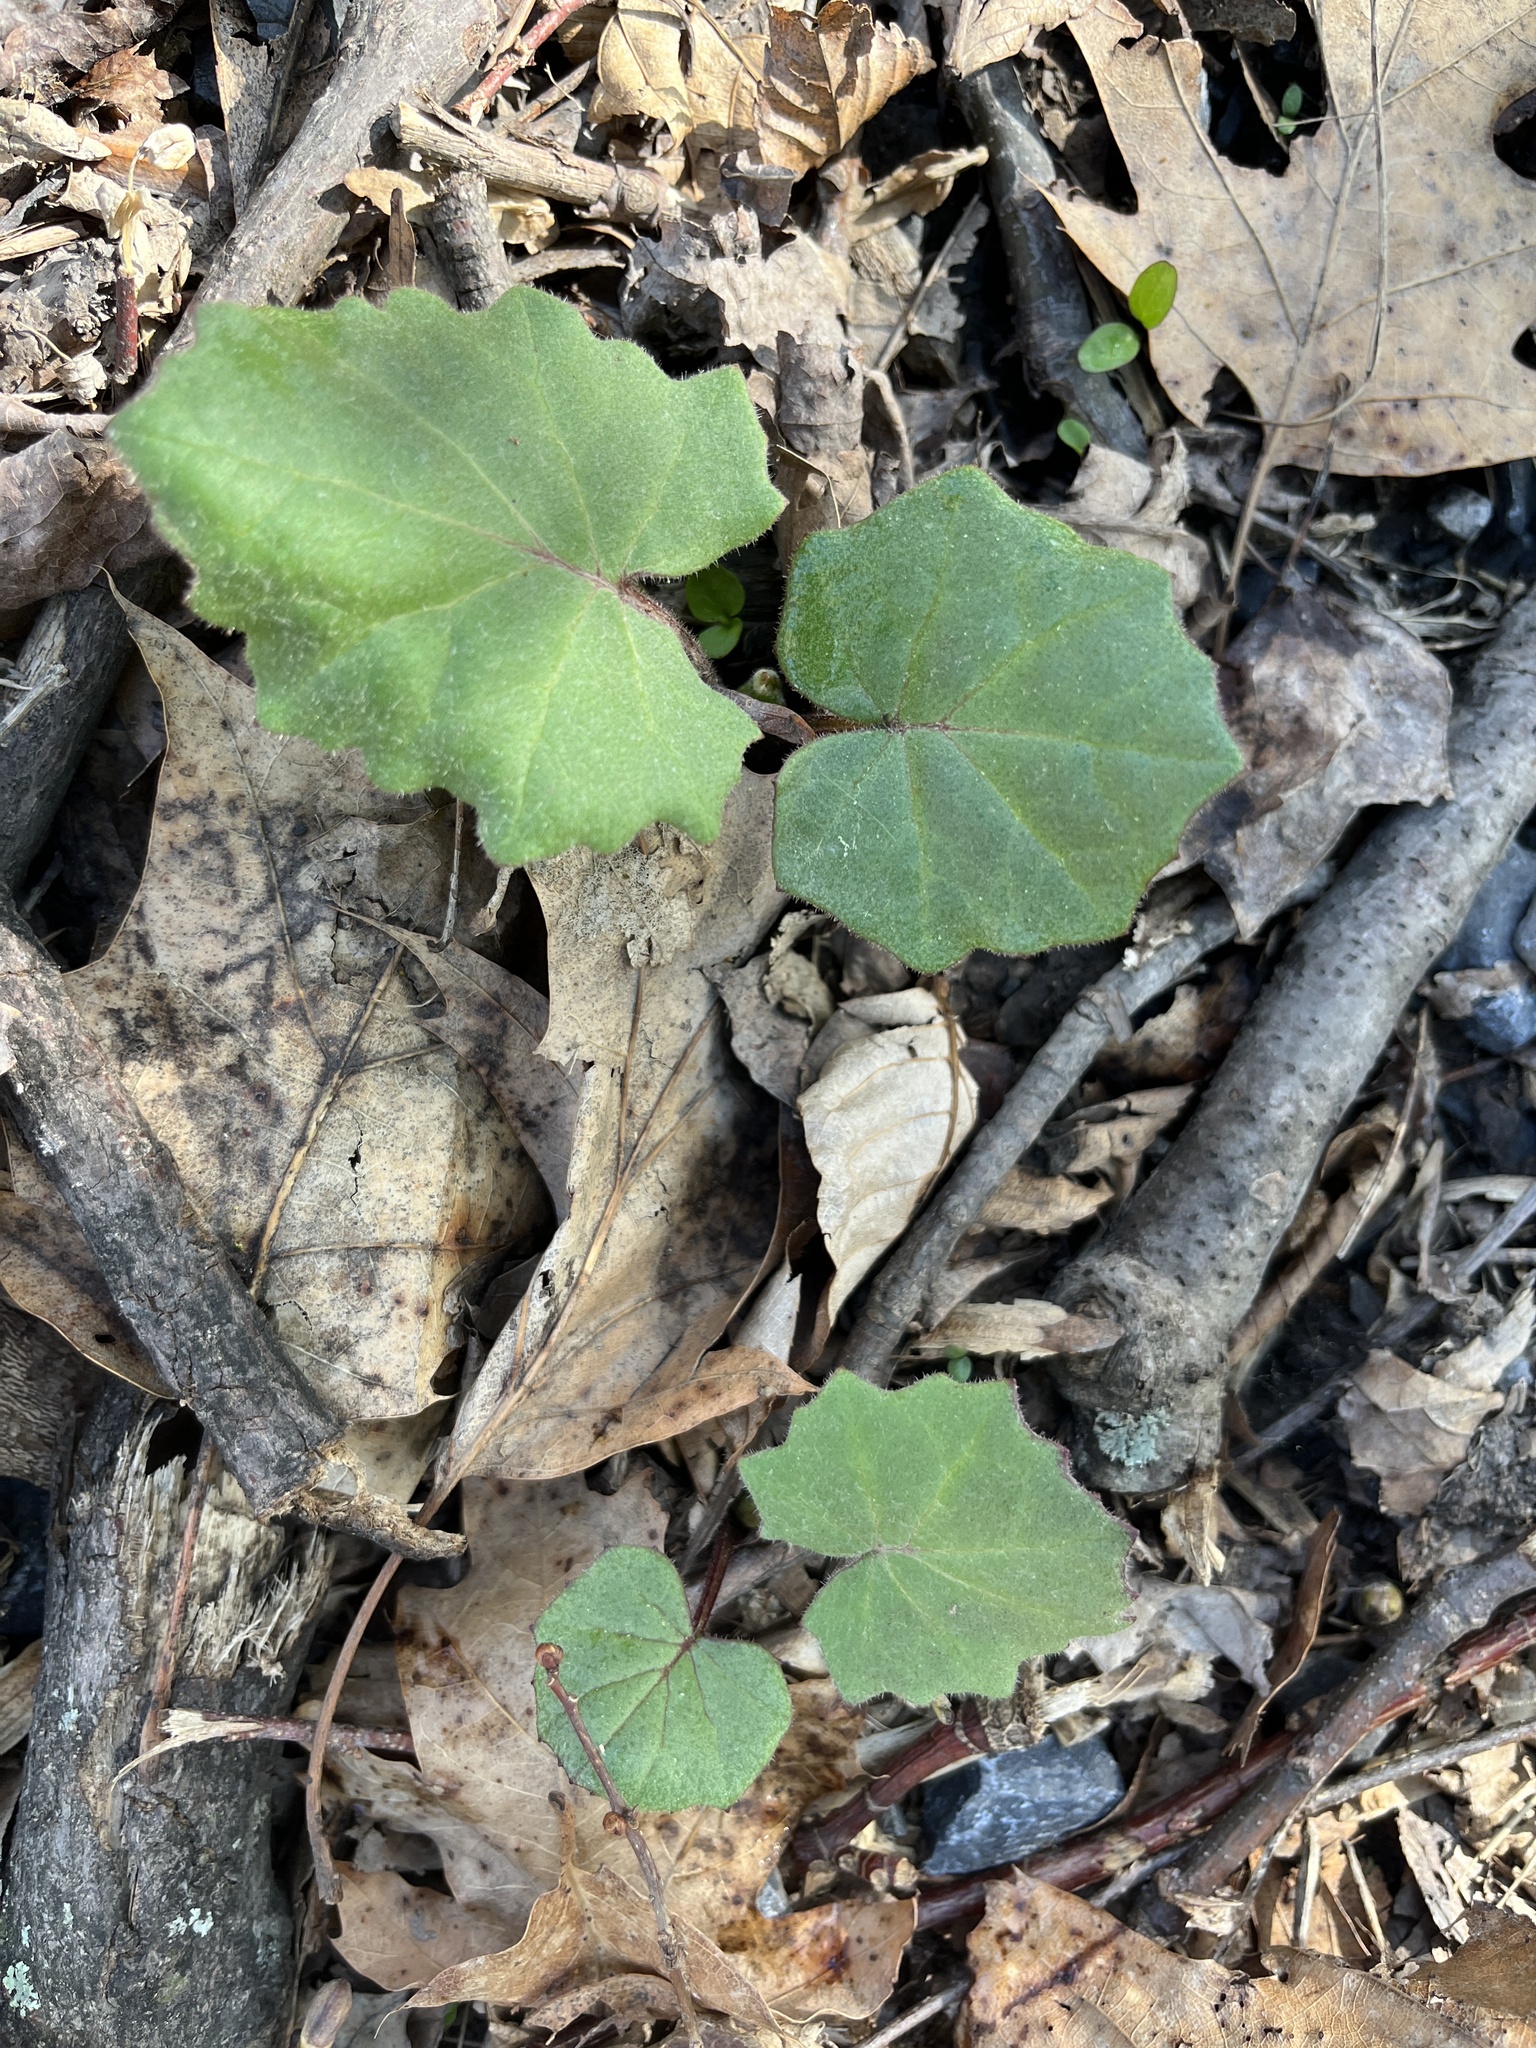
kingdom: Plantae
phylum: Tracheophyta
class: Magnoliopsida
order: Asterales
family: Asteraceae
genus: Tussilago
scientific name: Tussilago farfara
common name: Coltsfoot
